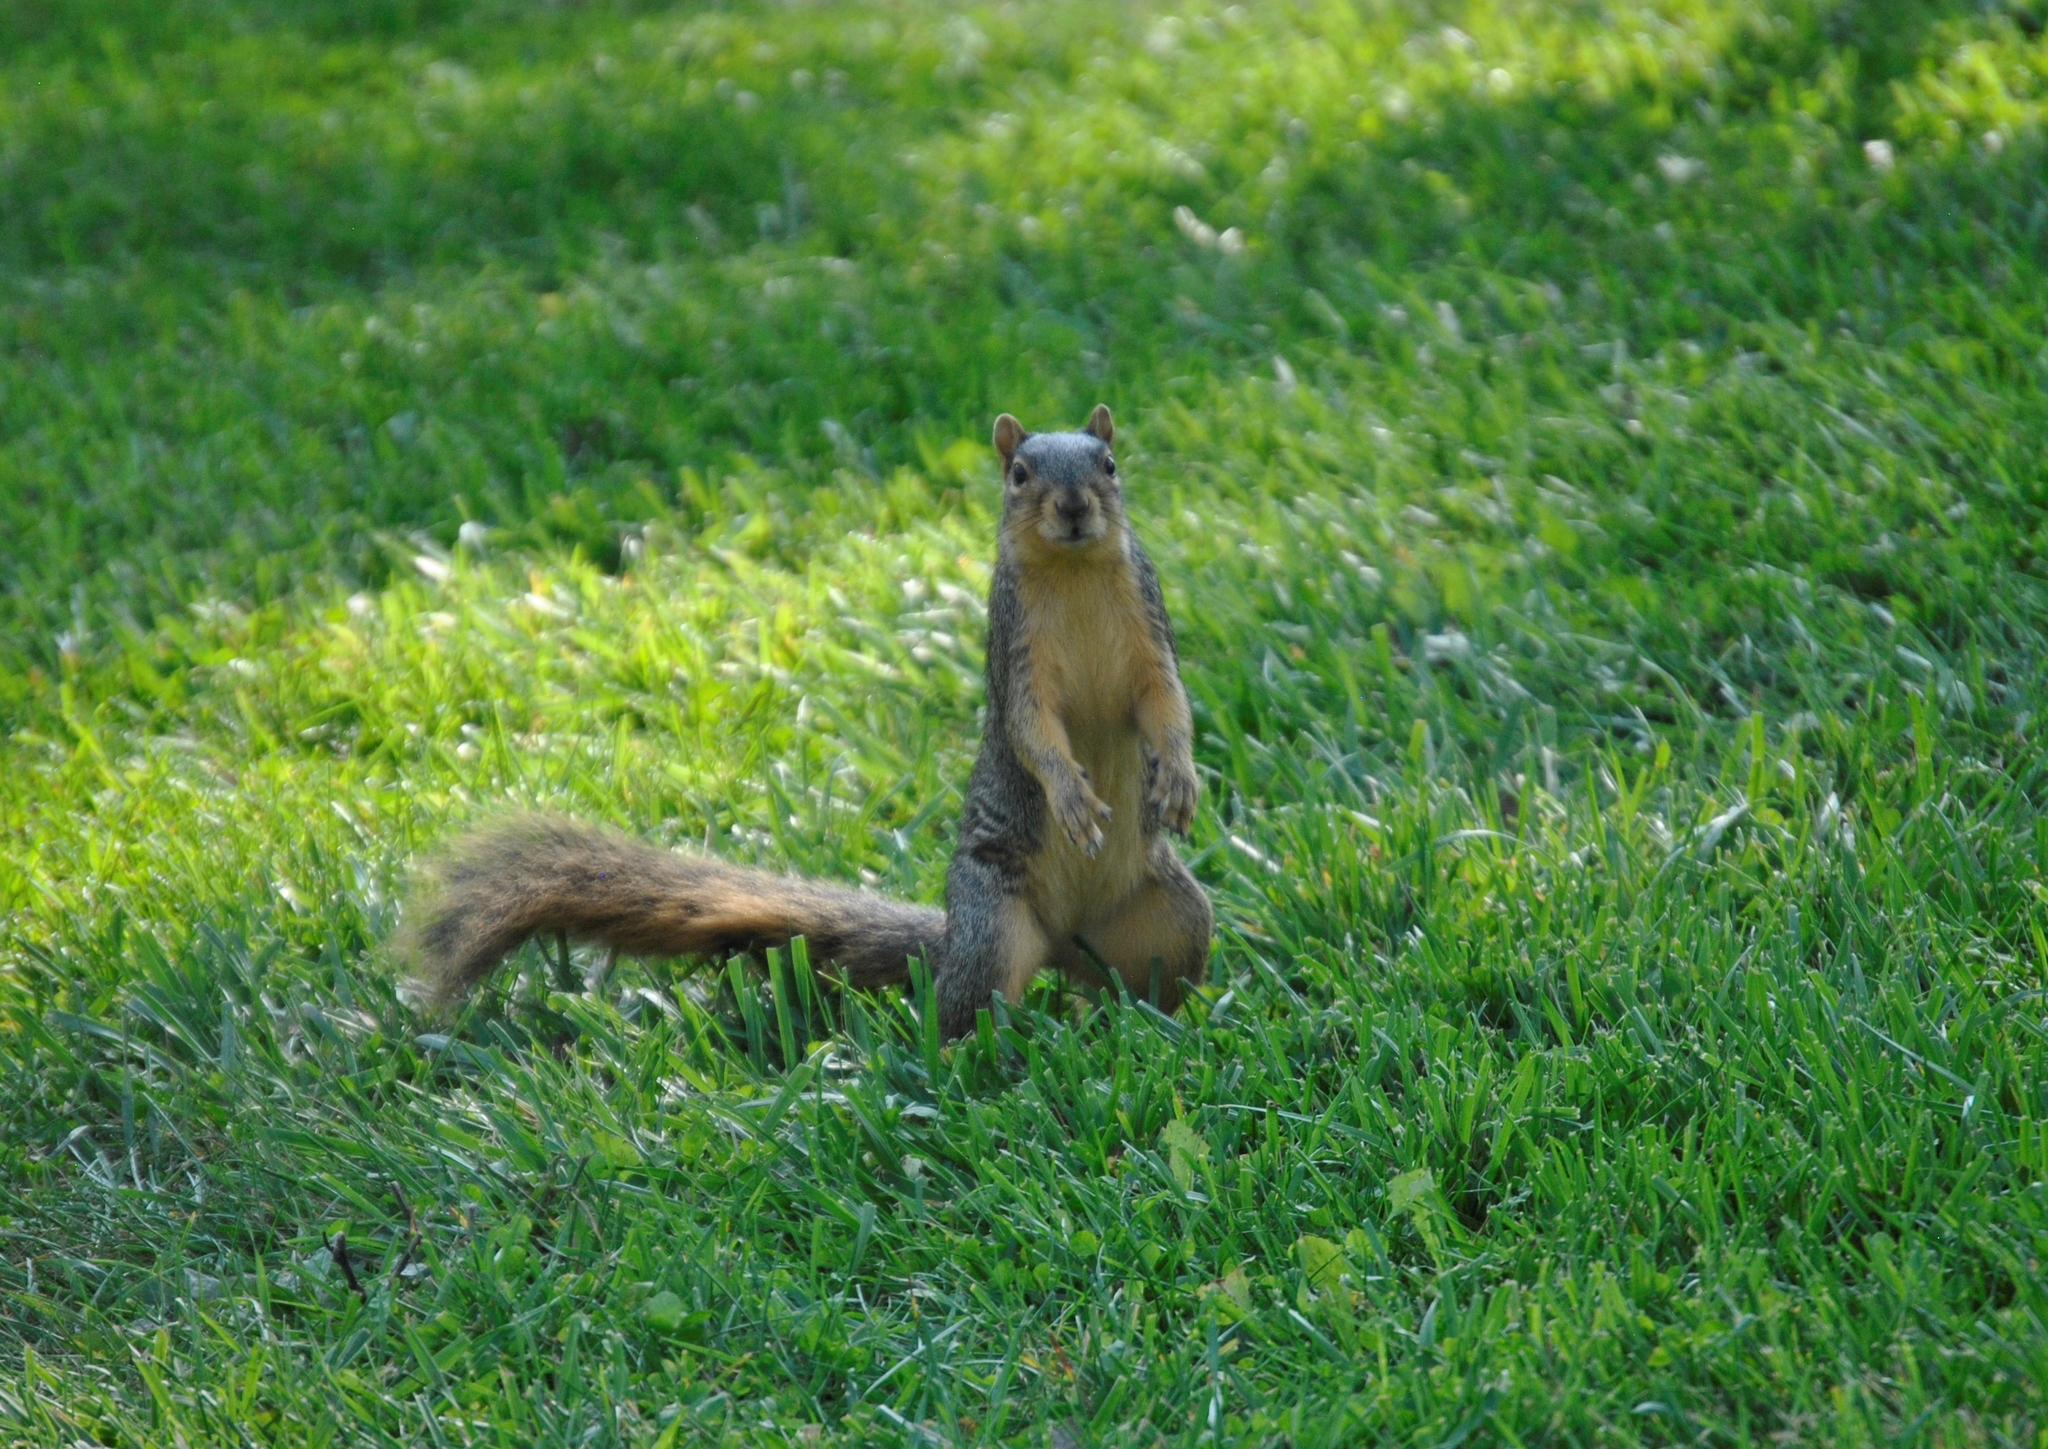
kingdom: Animalia
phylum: Chordata
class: Mammalia
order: Rodentia
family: Sciuridae
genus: Sciurus
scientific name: Sciurus niger
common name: Fox squirrel
